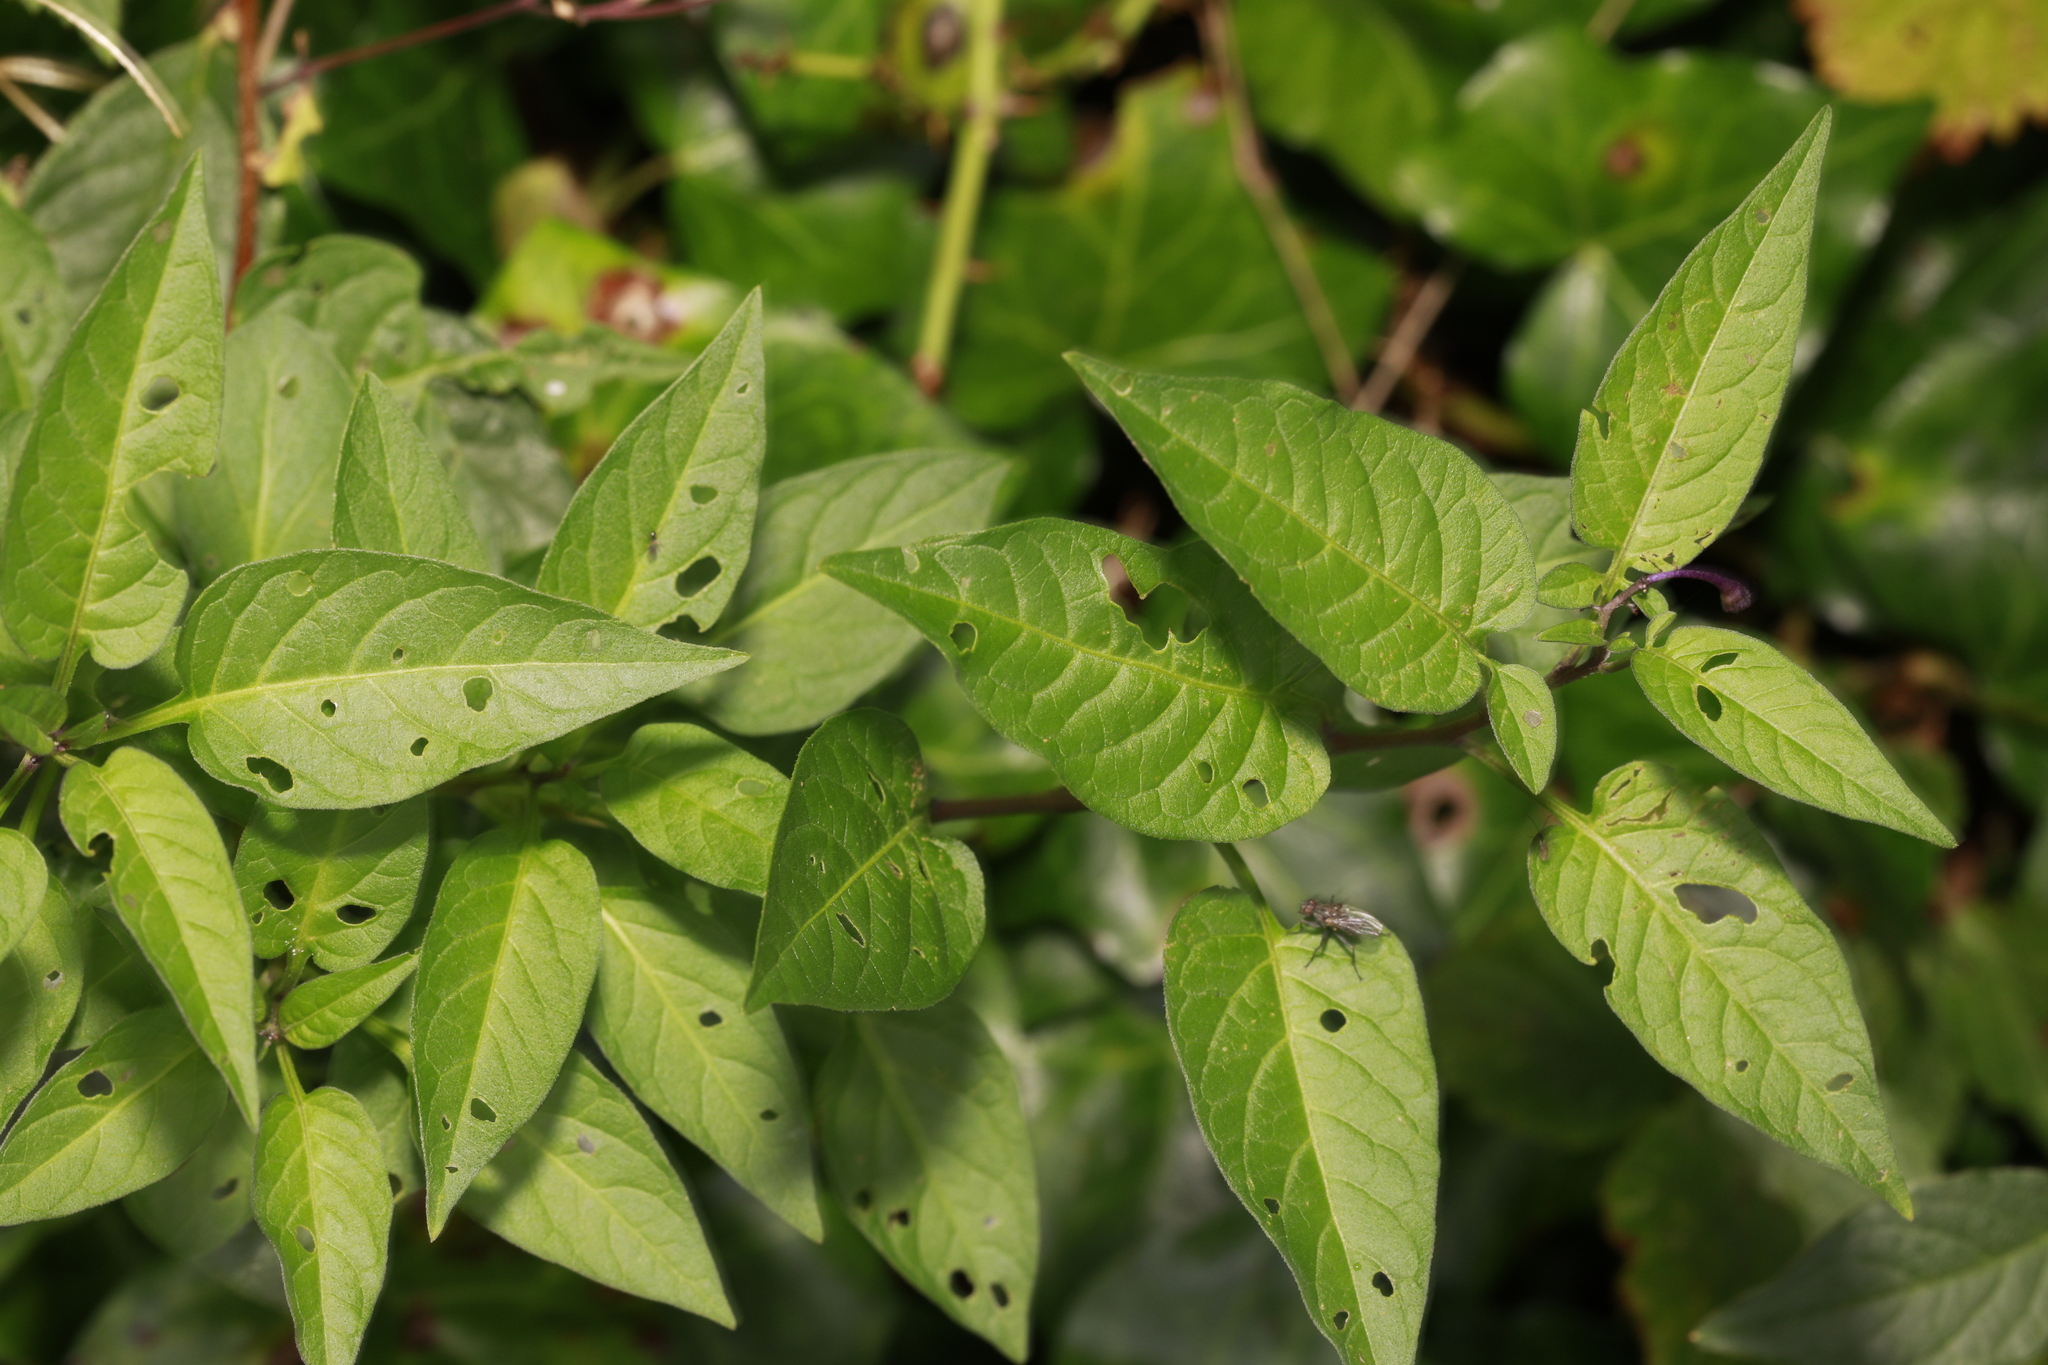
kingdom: Plantae
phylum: Tracheophyta
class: Magnoliopsida
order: Solanales
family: Solanaceae
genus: Solanum
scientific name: Solanum dulcamara
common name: Climbing nightshade
